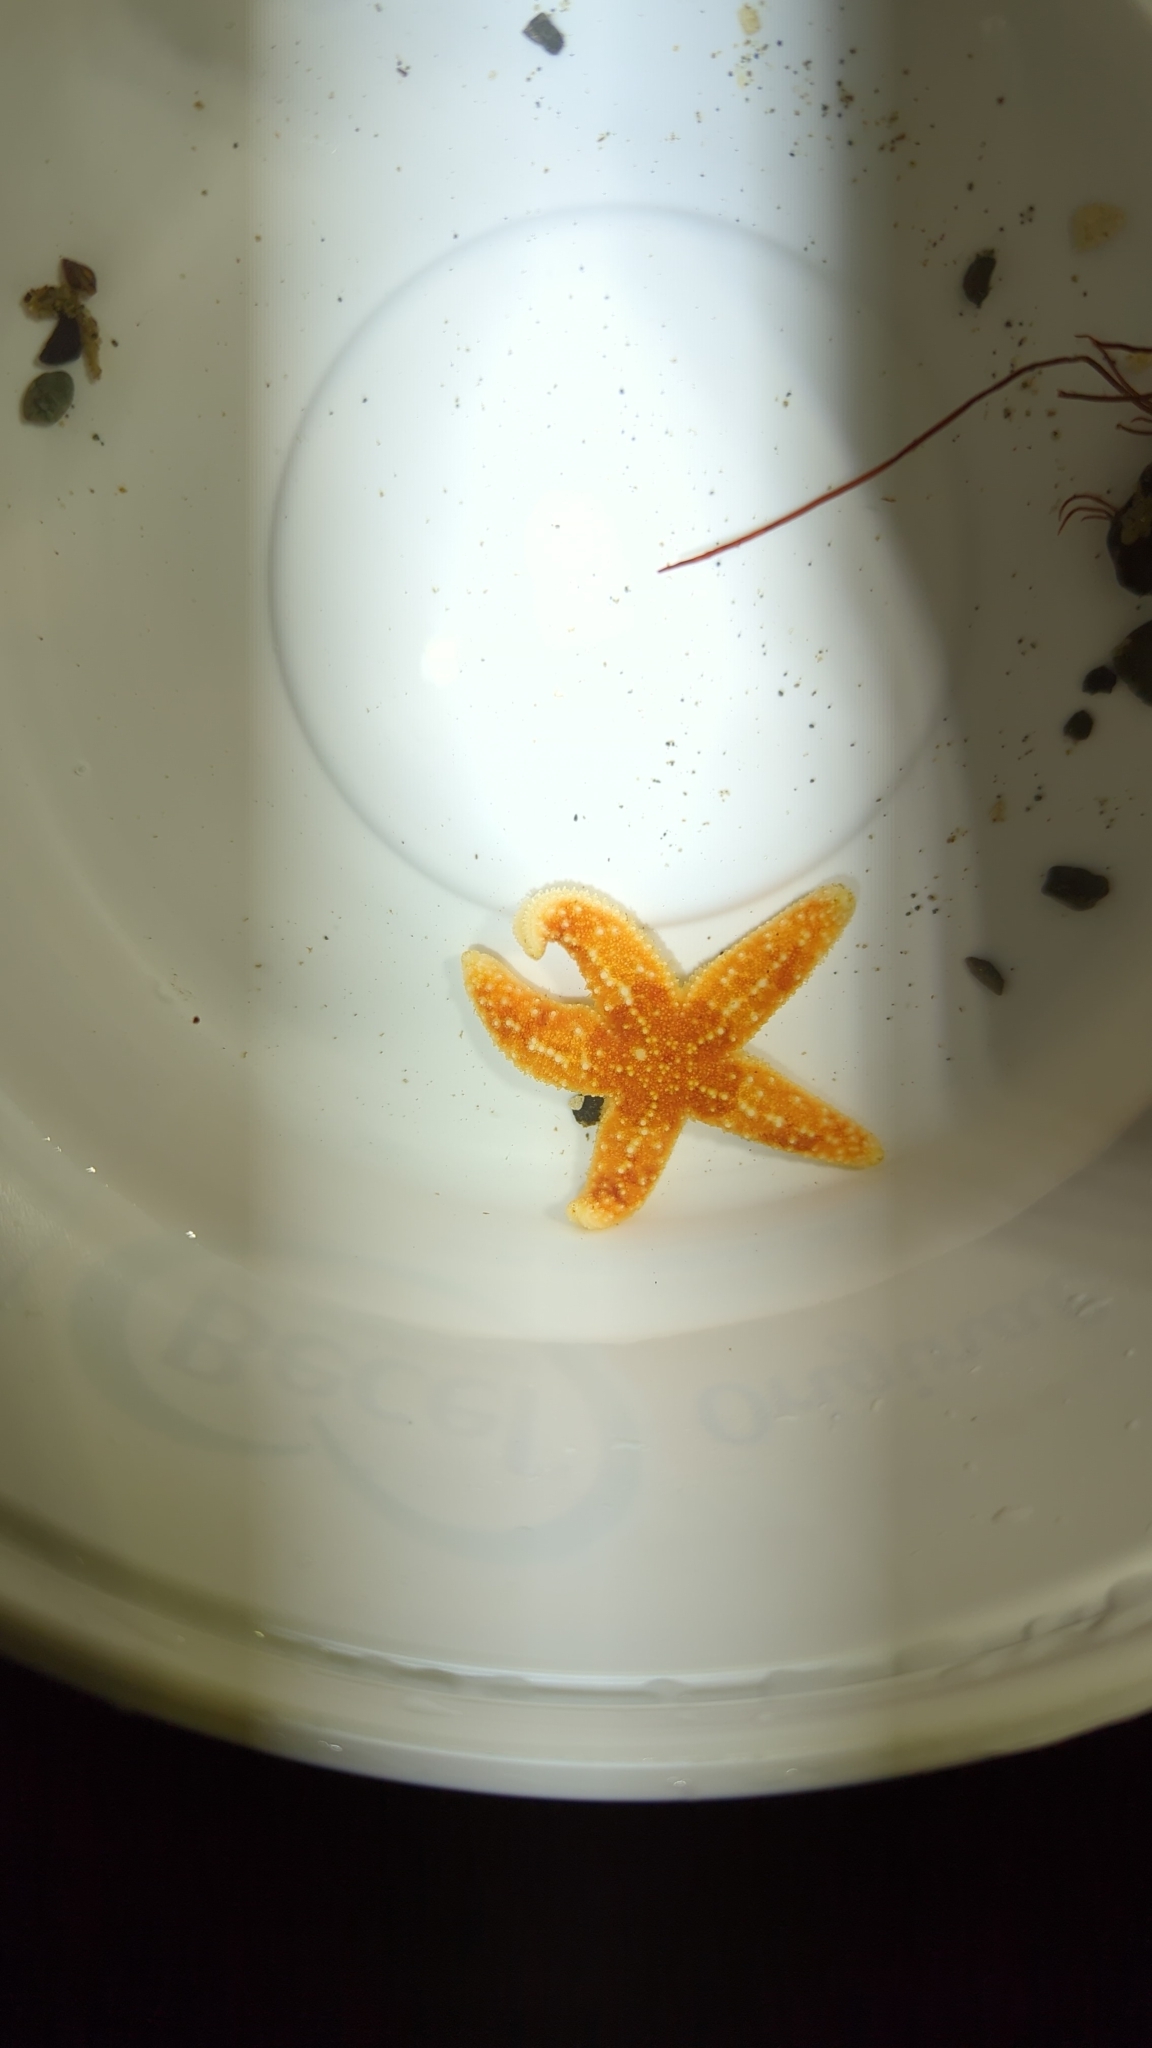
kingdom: Animalia
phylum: Echinodermata
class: Asteroidea
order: Forcipulatida
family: Asteriidae
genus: Evasterias
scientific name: Evasterias troschelii
